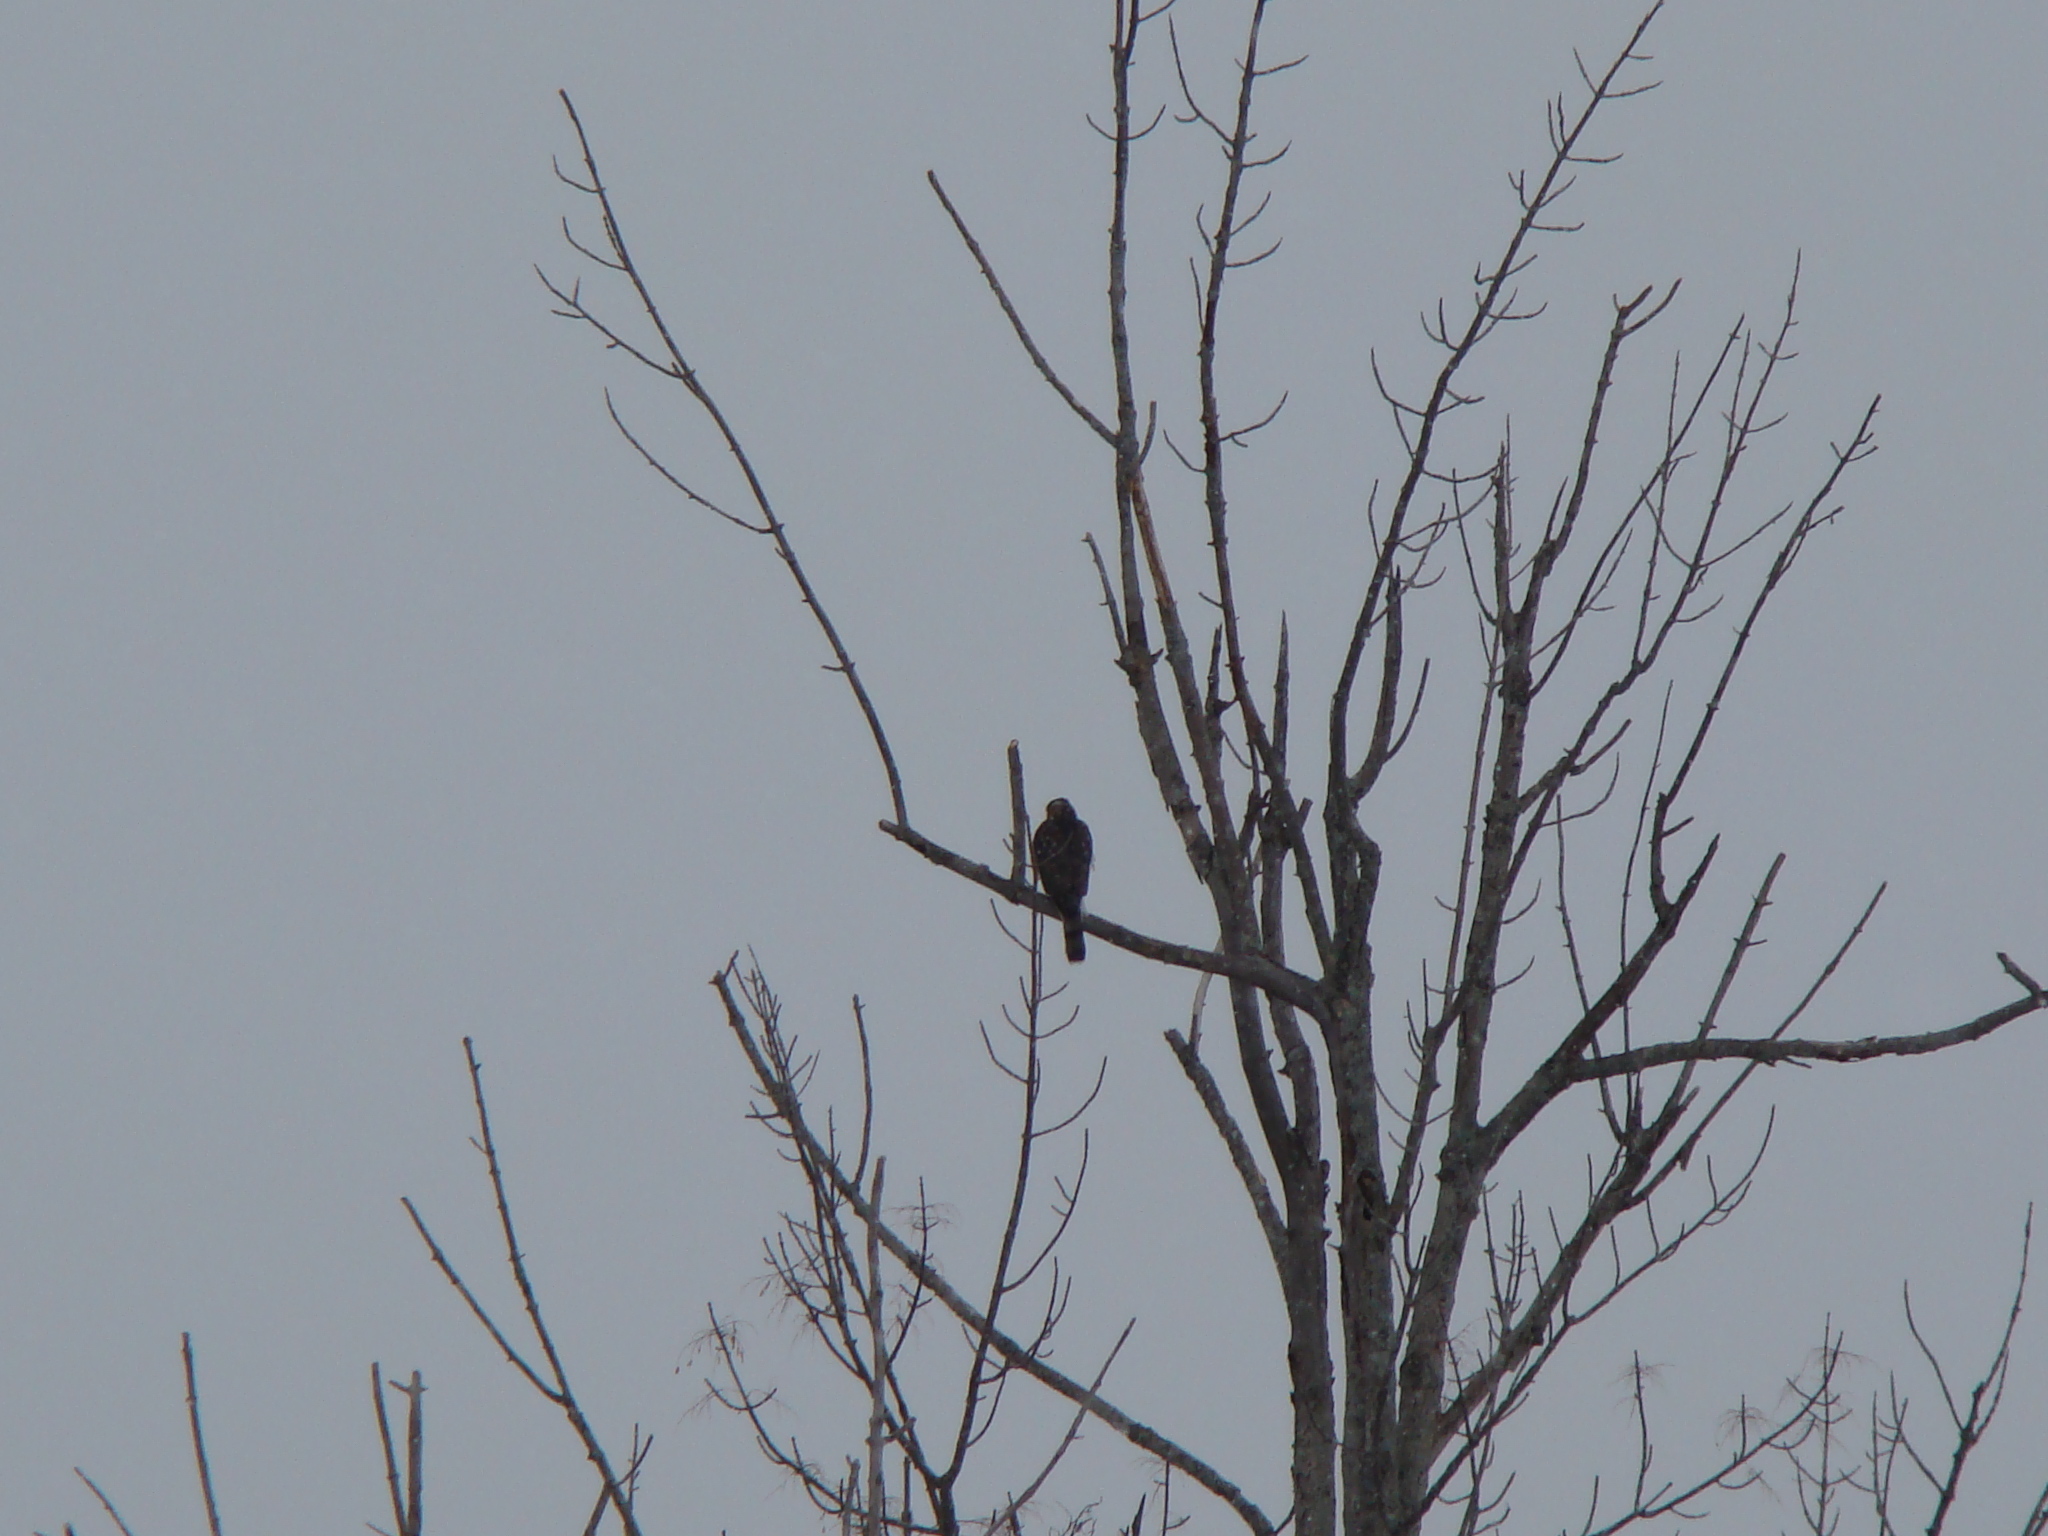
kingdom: Animalia
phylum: Chordata
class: Aves
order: Accipitriformes
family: Accipitridae
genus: Accipiter
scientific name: Accipiter cooperii
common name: Cooper's hawk
